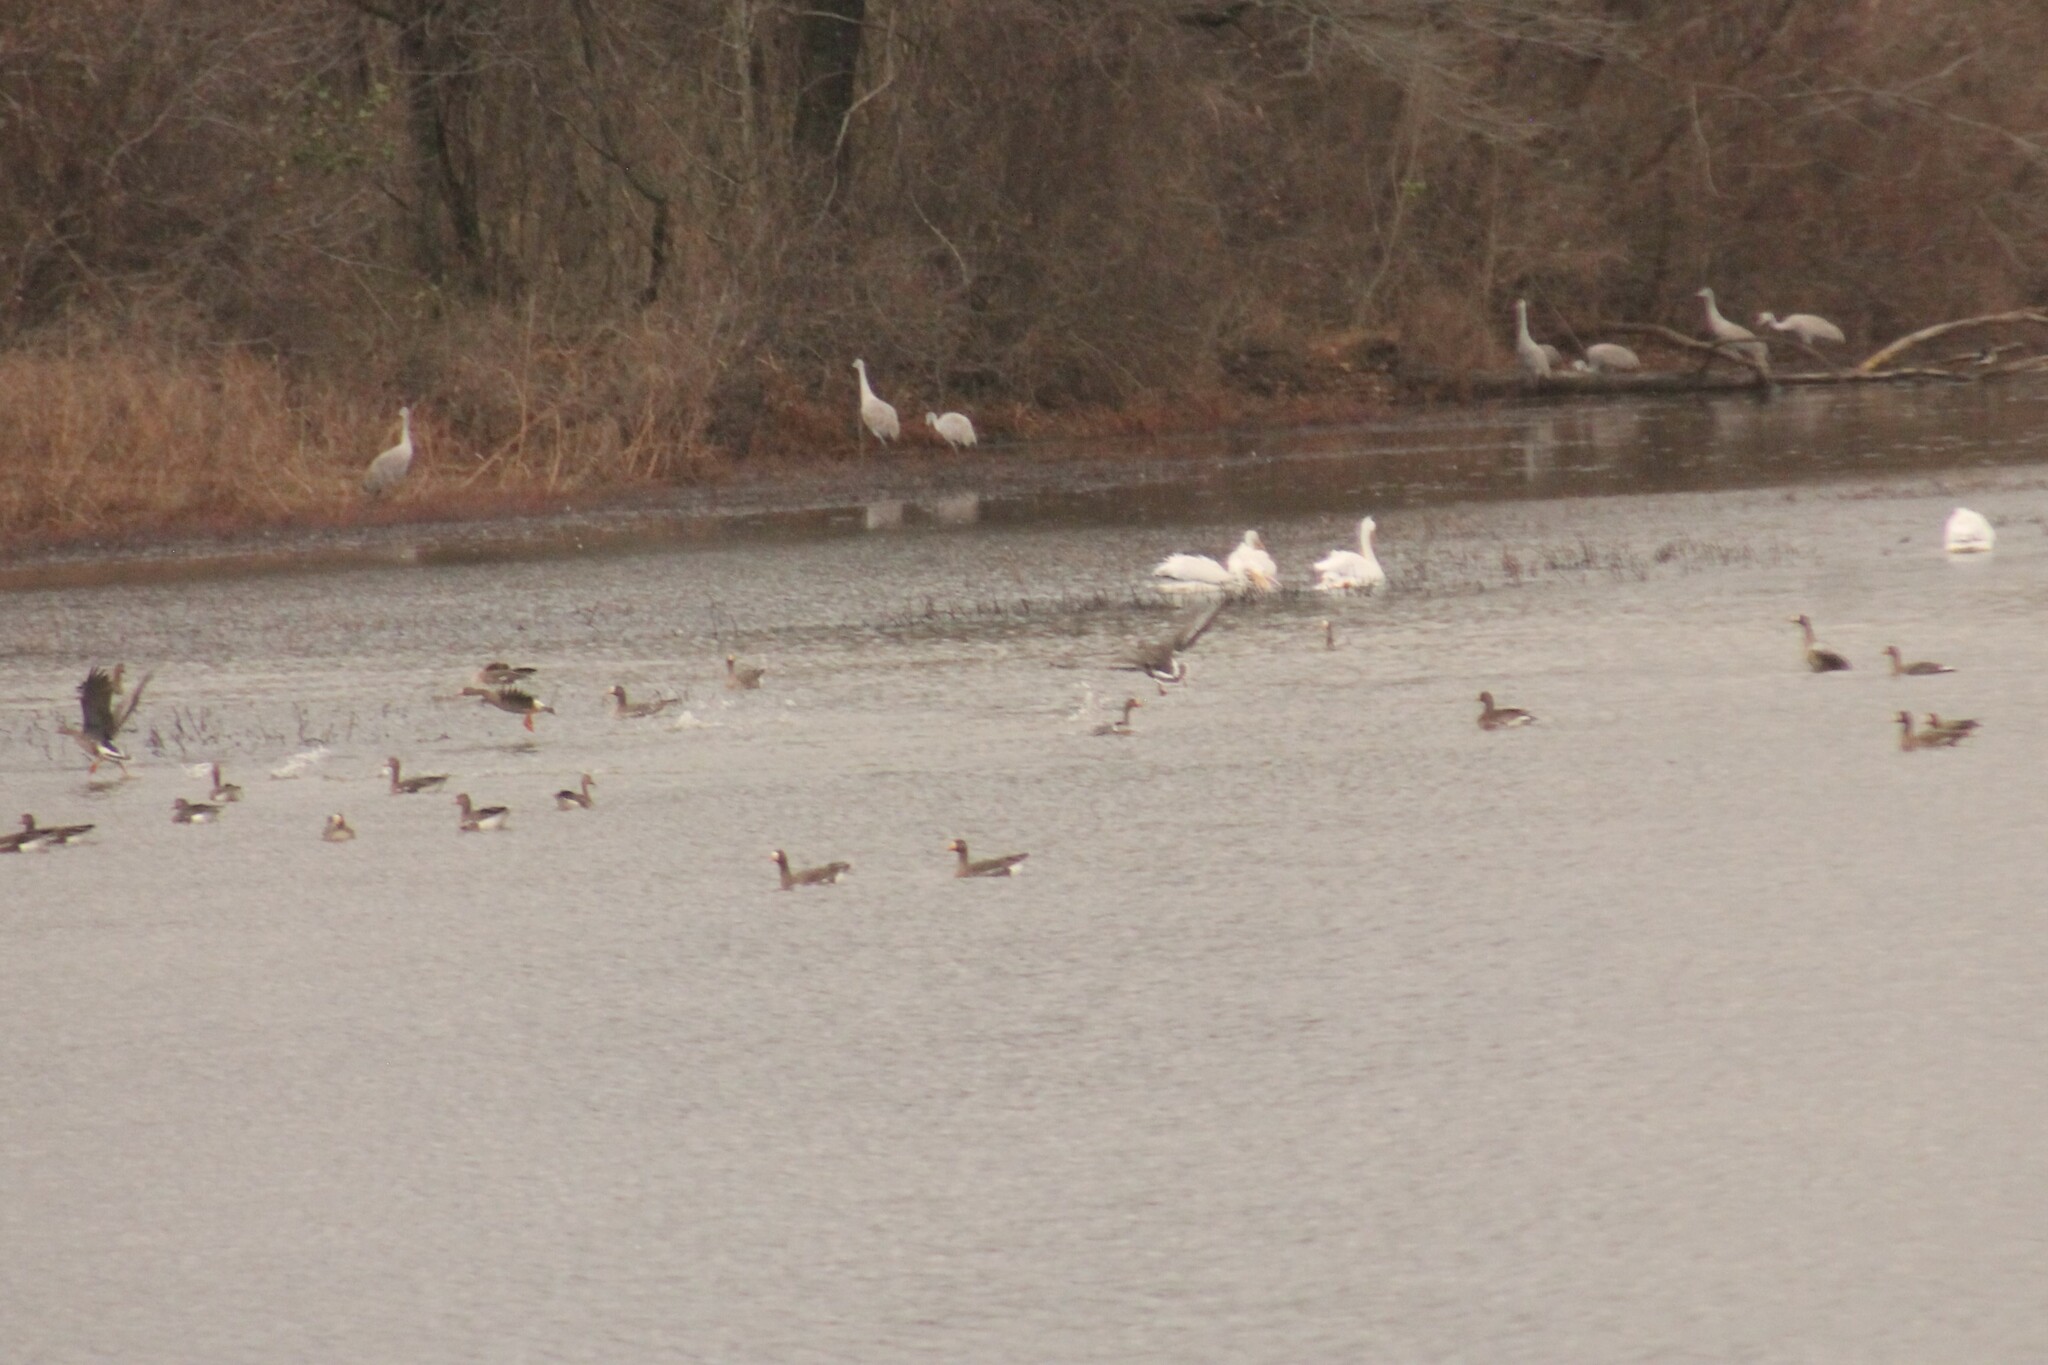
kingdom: Animalia
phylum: Chordata
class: Aves
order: Anseriformes
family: Anatidae
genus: Anser
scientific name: Anser albifrons
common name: Greater white-fronted goose
